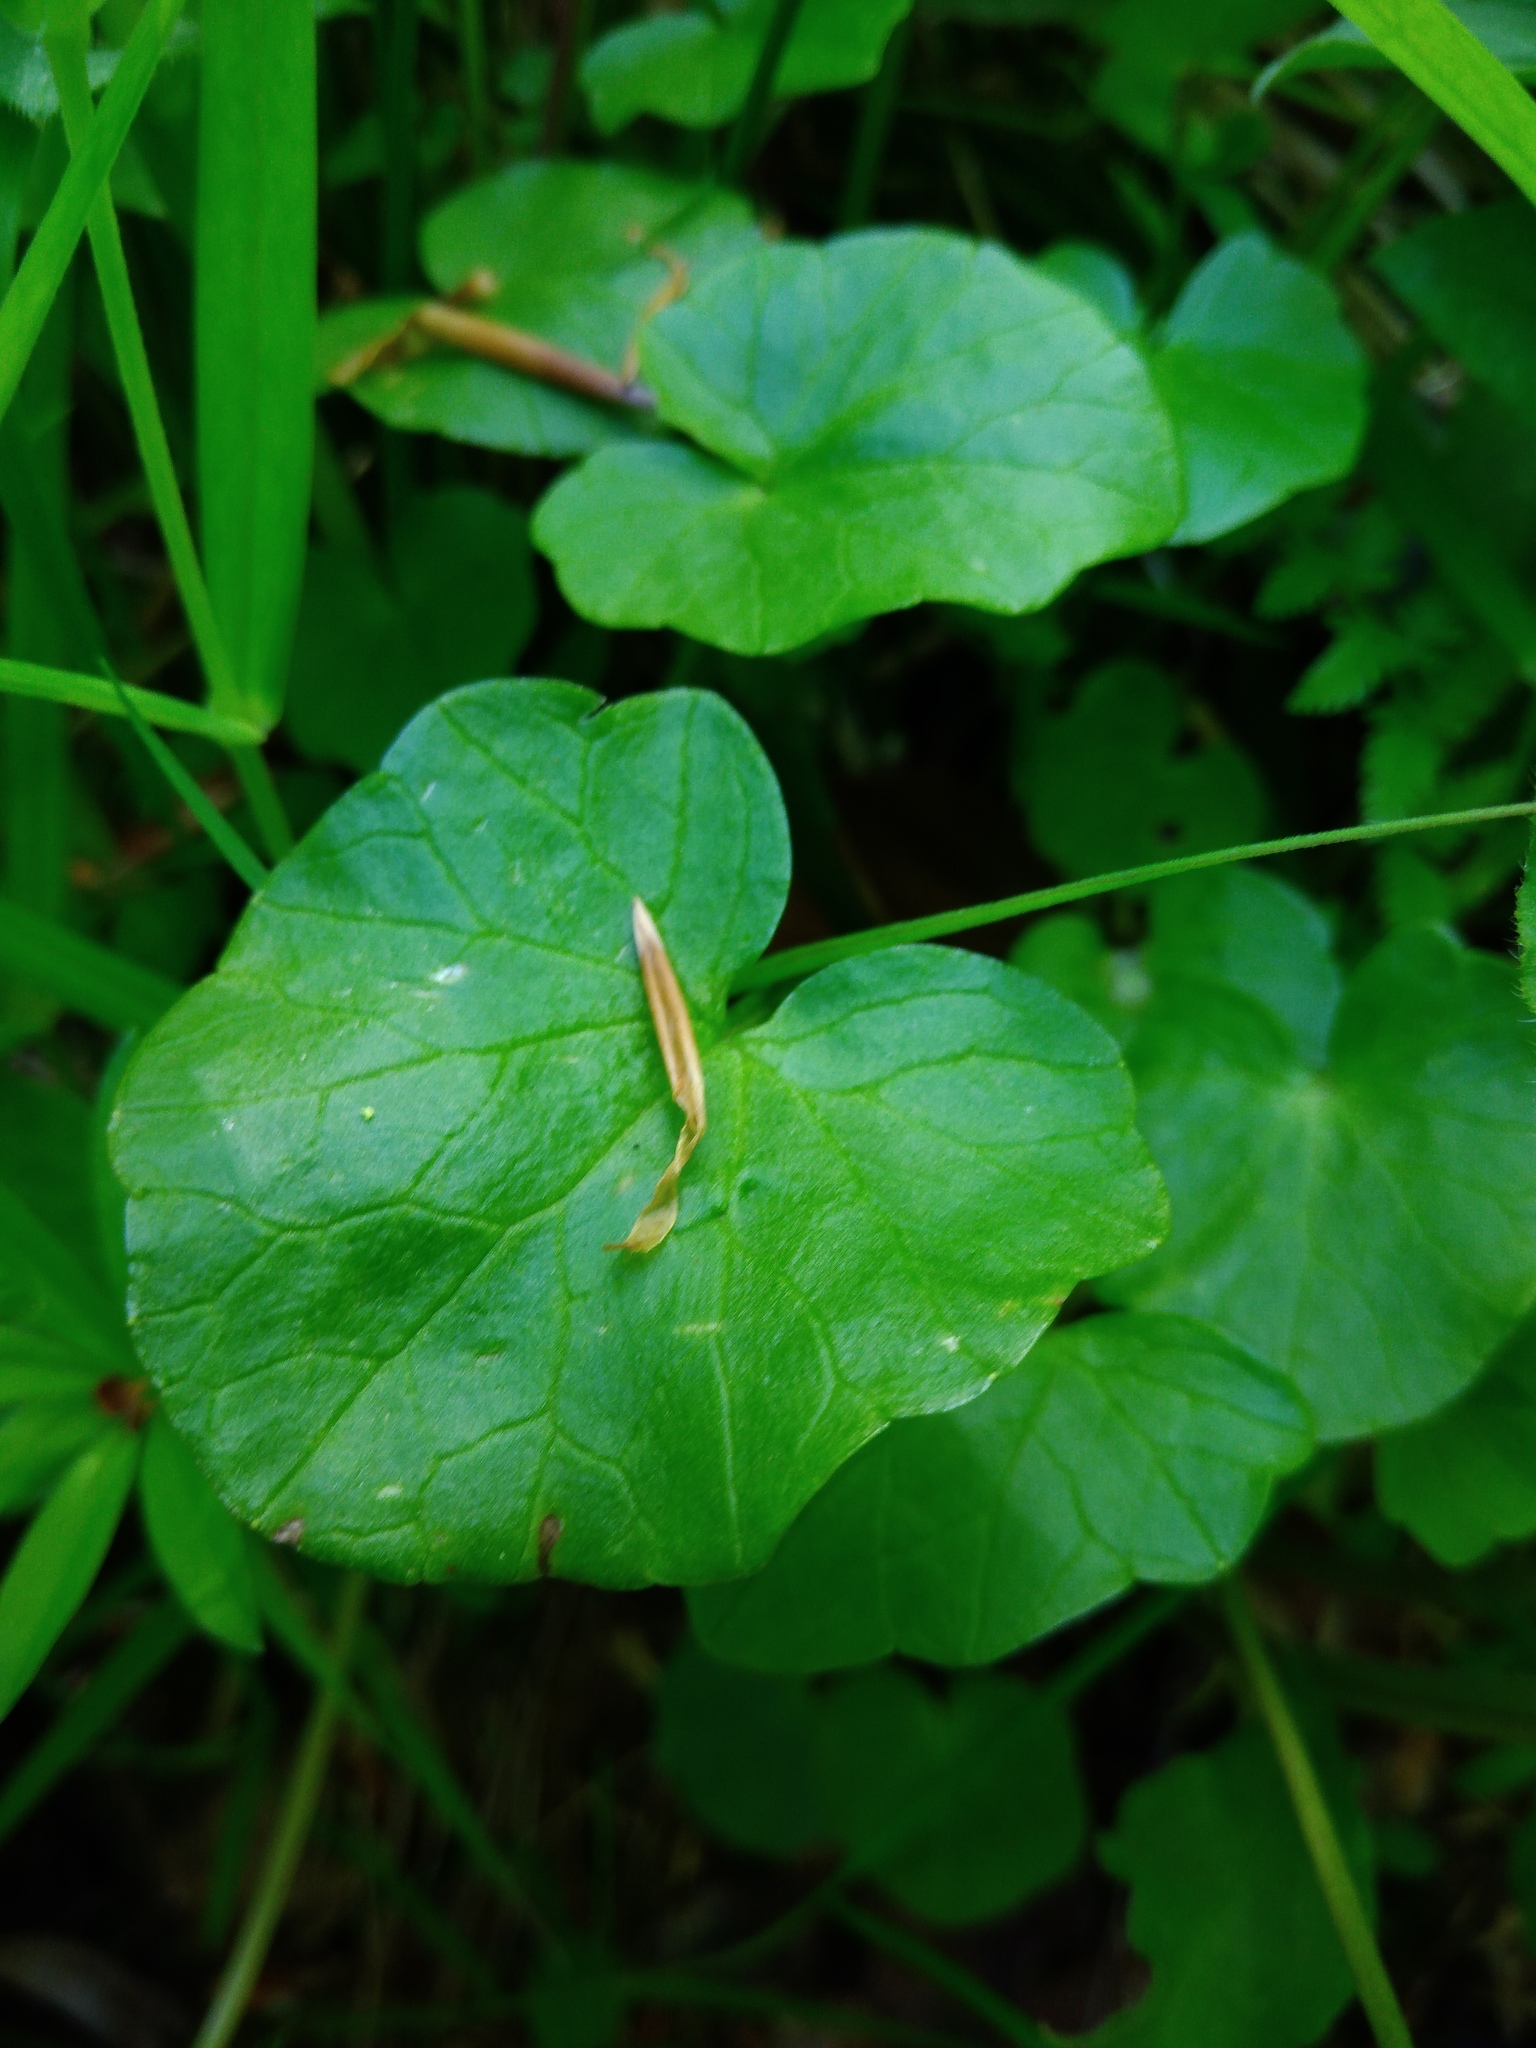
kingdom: Plantae
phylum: Tracheophyta
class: Magnoliopsida
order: Ranunculales
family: Ranunculaceae
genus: Ficaria
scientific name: Ficaria verna
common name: Lesser celandine
